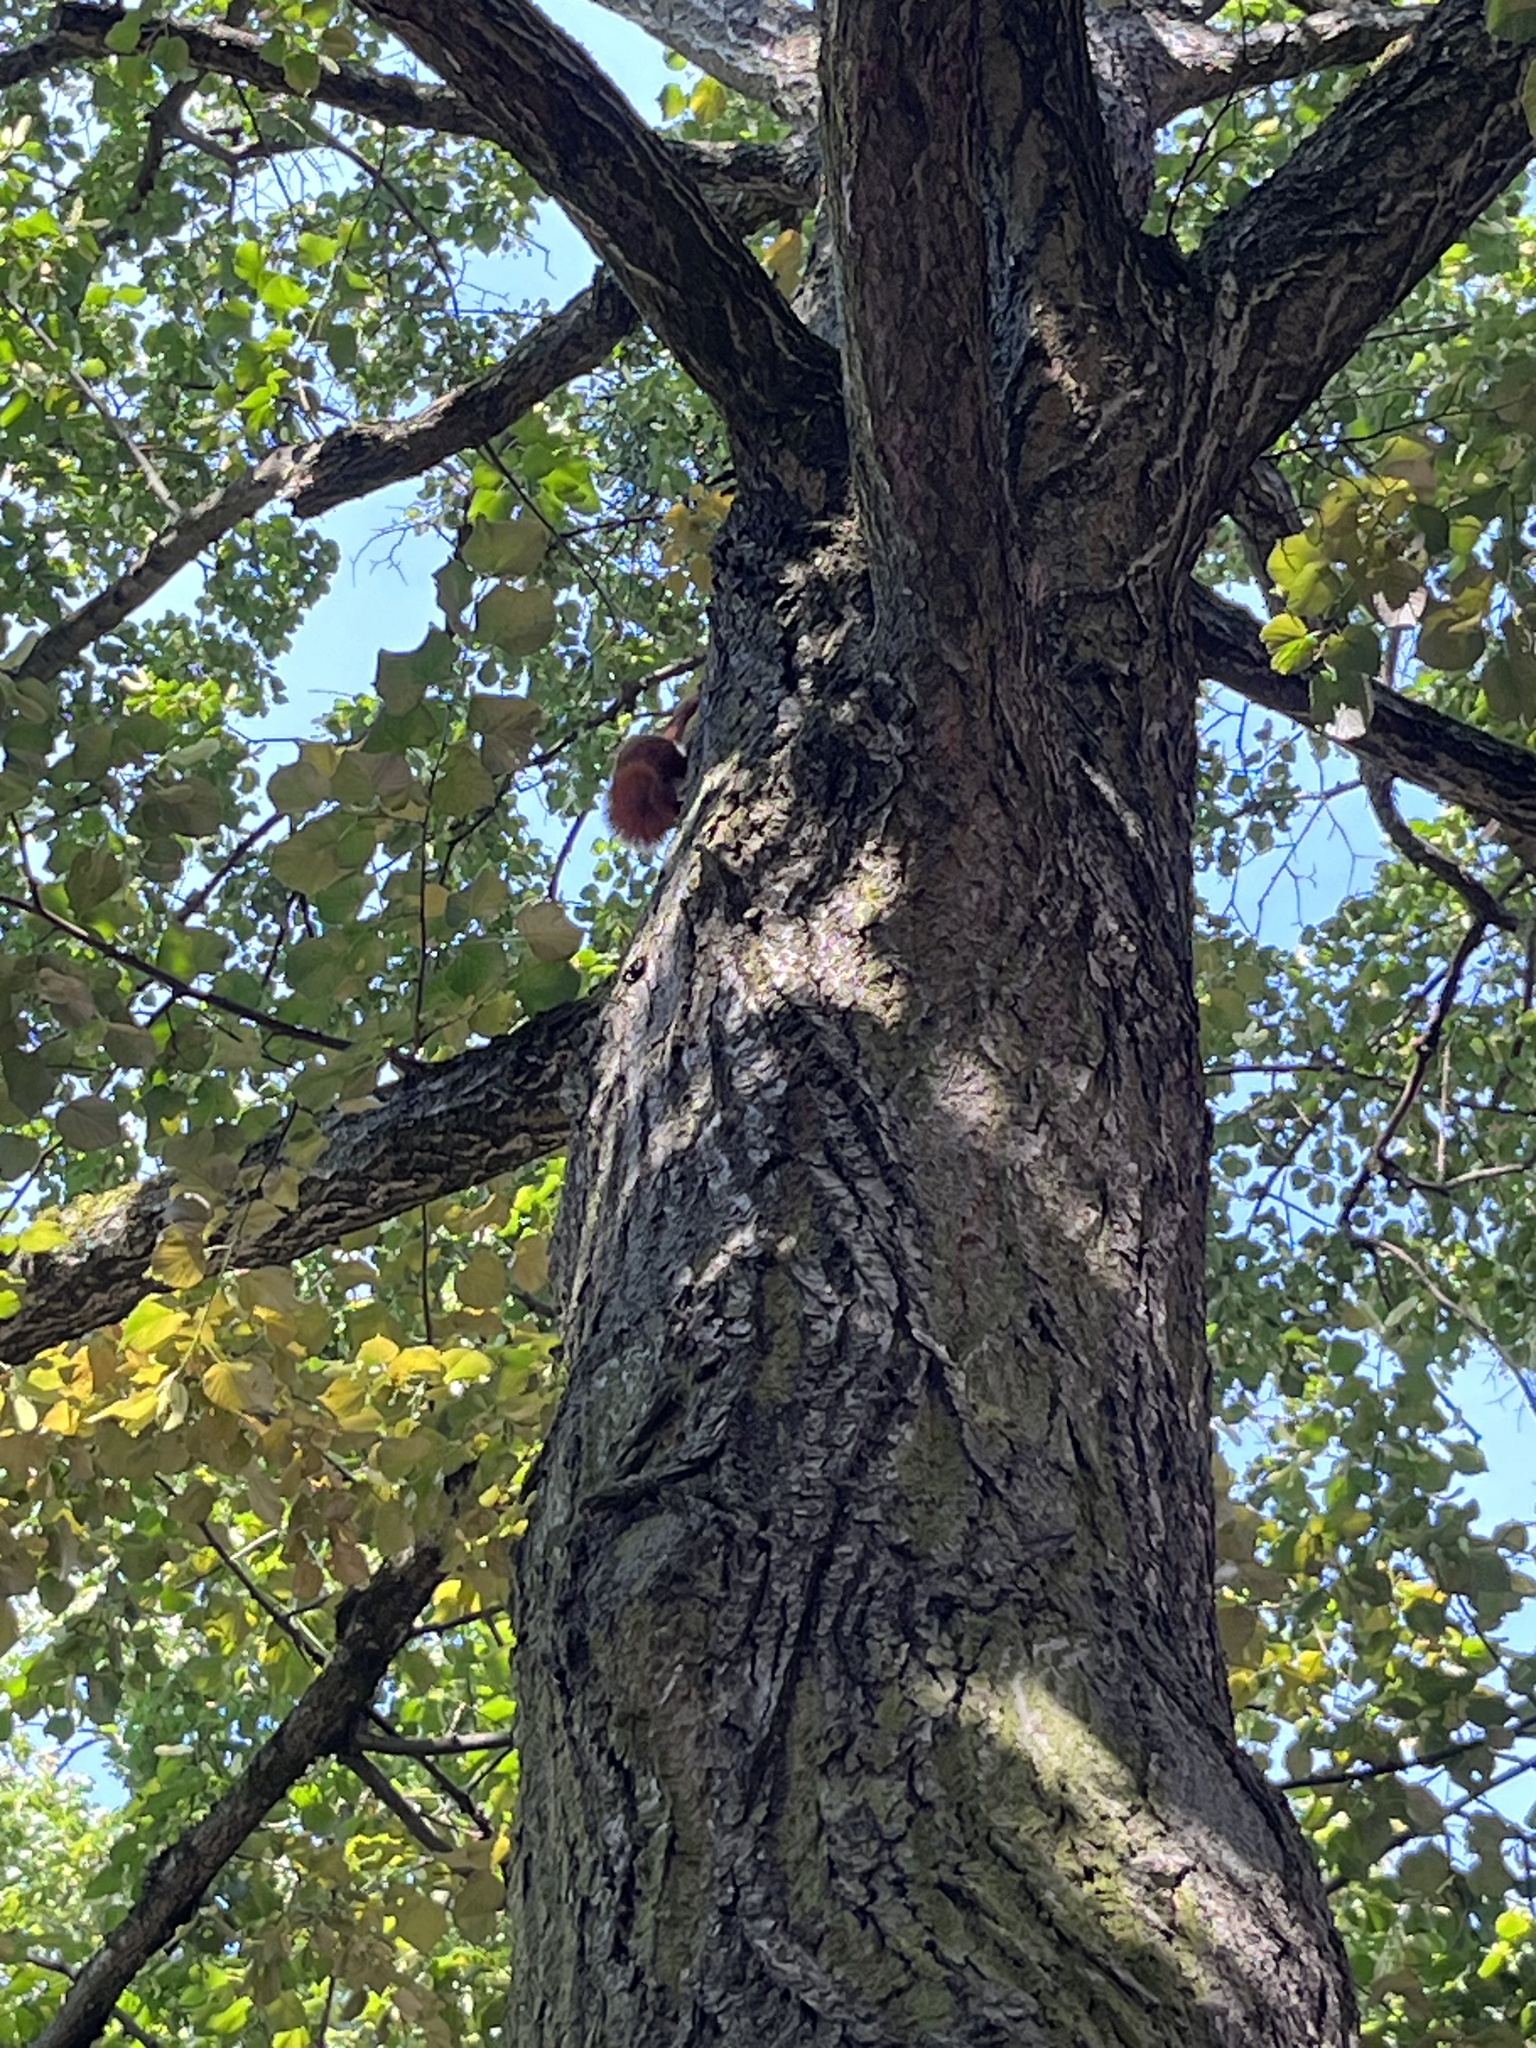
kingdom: Animalia
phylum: Chordata
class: Mammalia
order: Rodentia
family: Sciuridae
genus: Sciurus
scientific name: Sciurus vulgaris
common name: Eurasian red squirrel
